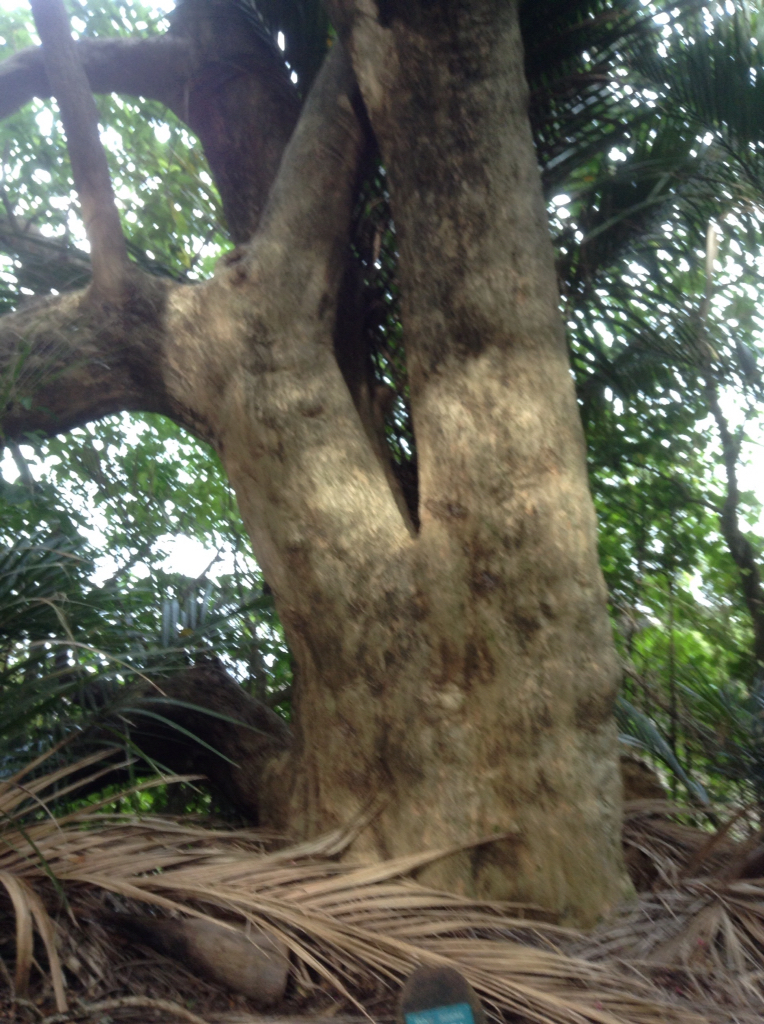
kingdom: Plantae
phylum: Tracheophyta
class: Magnoliopsida
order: Lamiales
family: Lamiaceae
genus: Vitex
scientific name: Vitex lucens
